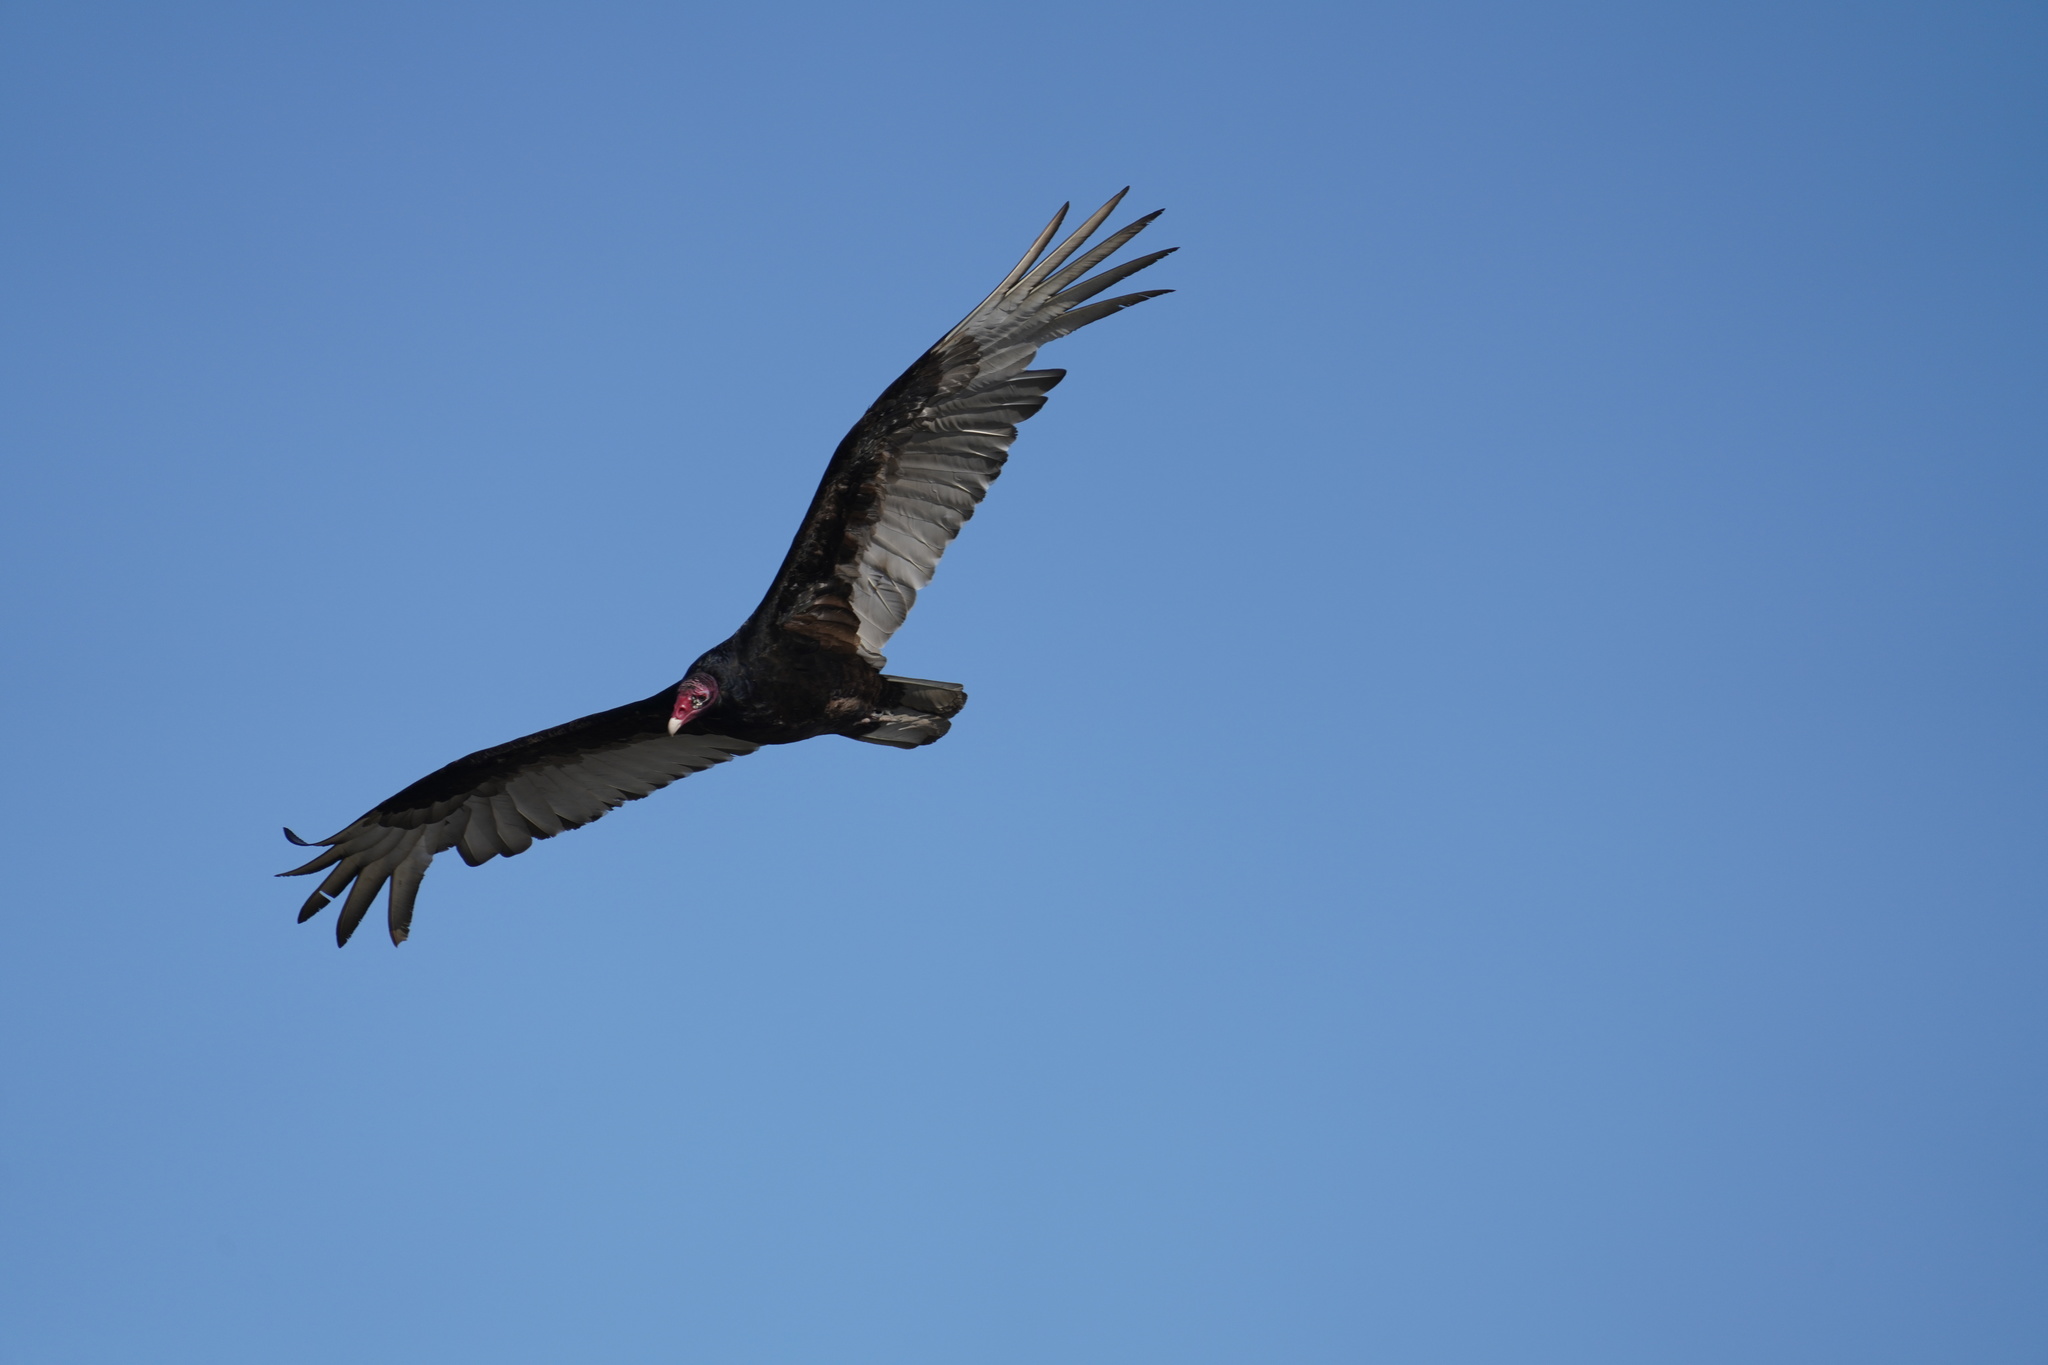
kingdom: Animalia
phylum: Chordata
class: Aves
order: Accipitriformes
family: Cathartidae
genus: Cathartes
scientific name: Cathartes aura
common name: Turkey vulture
